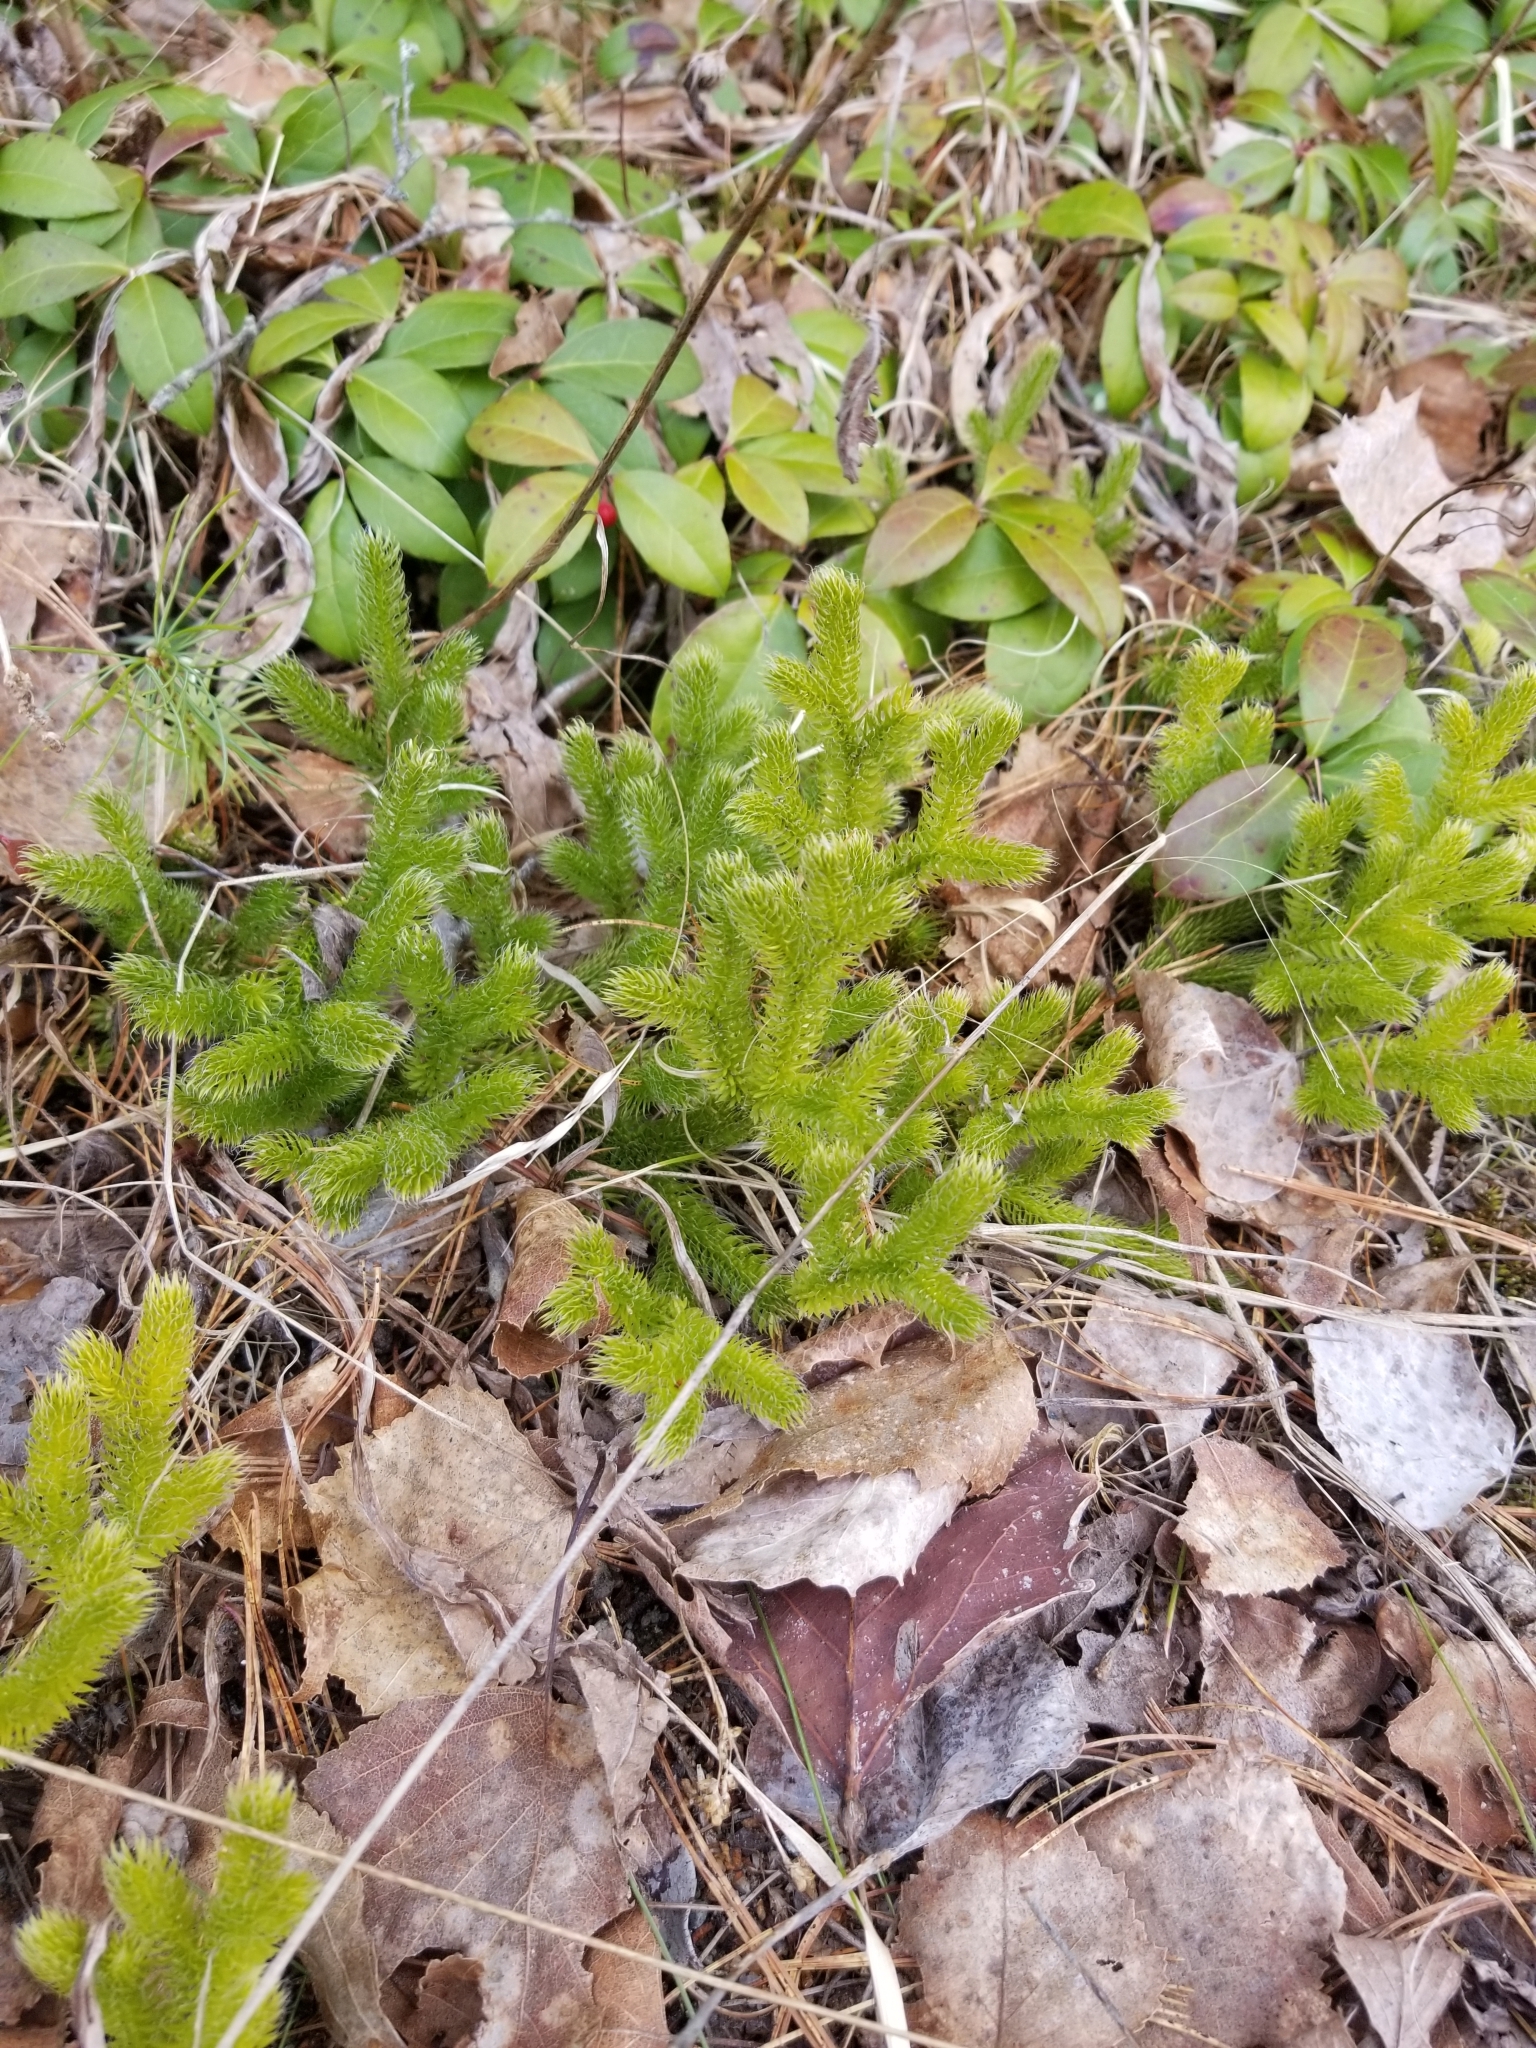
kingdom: Plantae
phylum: Tracheophyta
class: Lycopodiopsida
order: Lycopodiales
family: Lycopodiaceae
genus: Lycopodium
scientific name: Lycopodium clavatum
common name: Stag's-horn clubmoss
